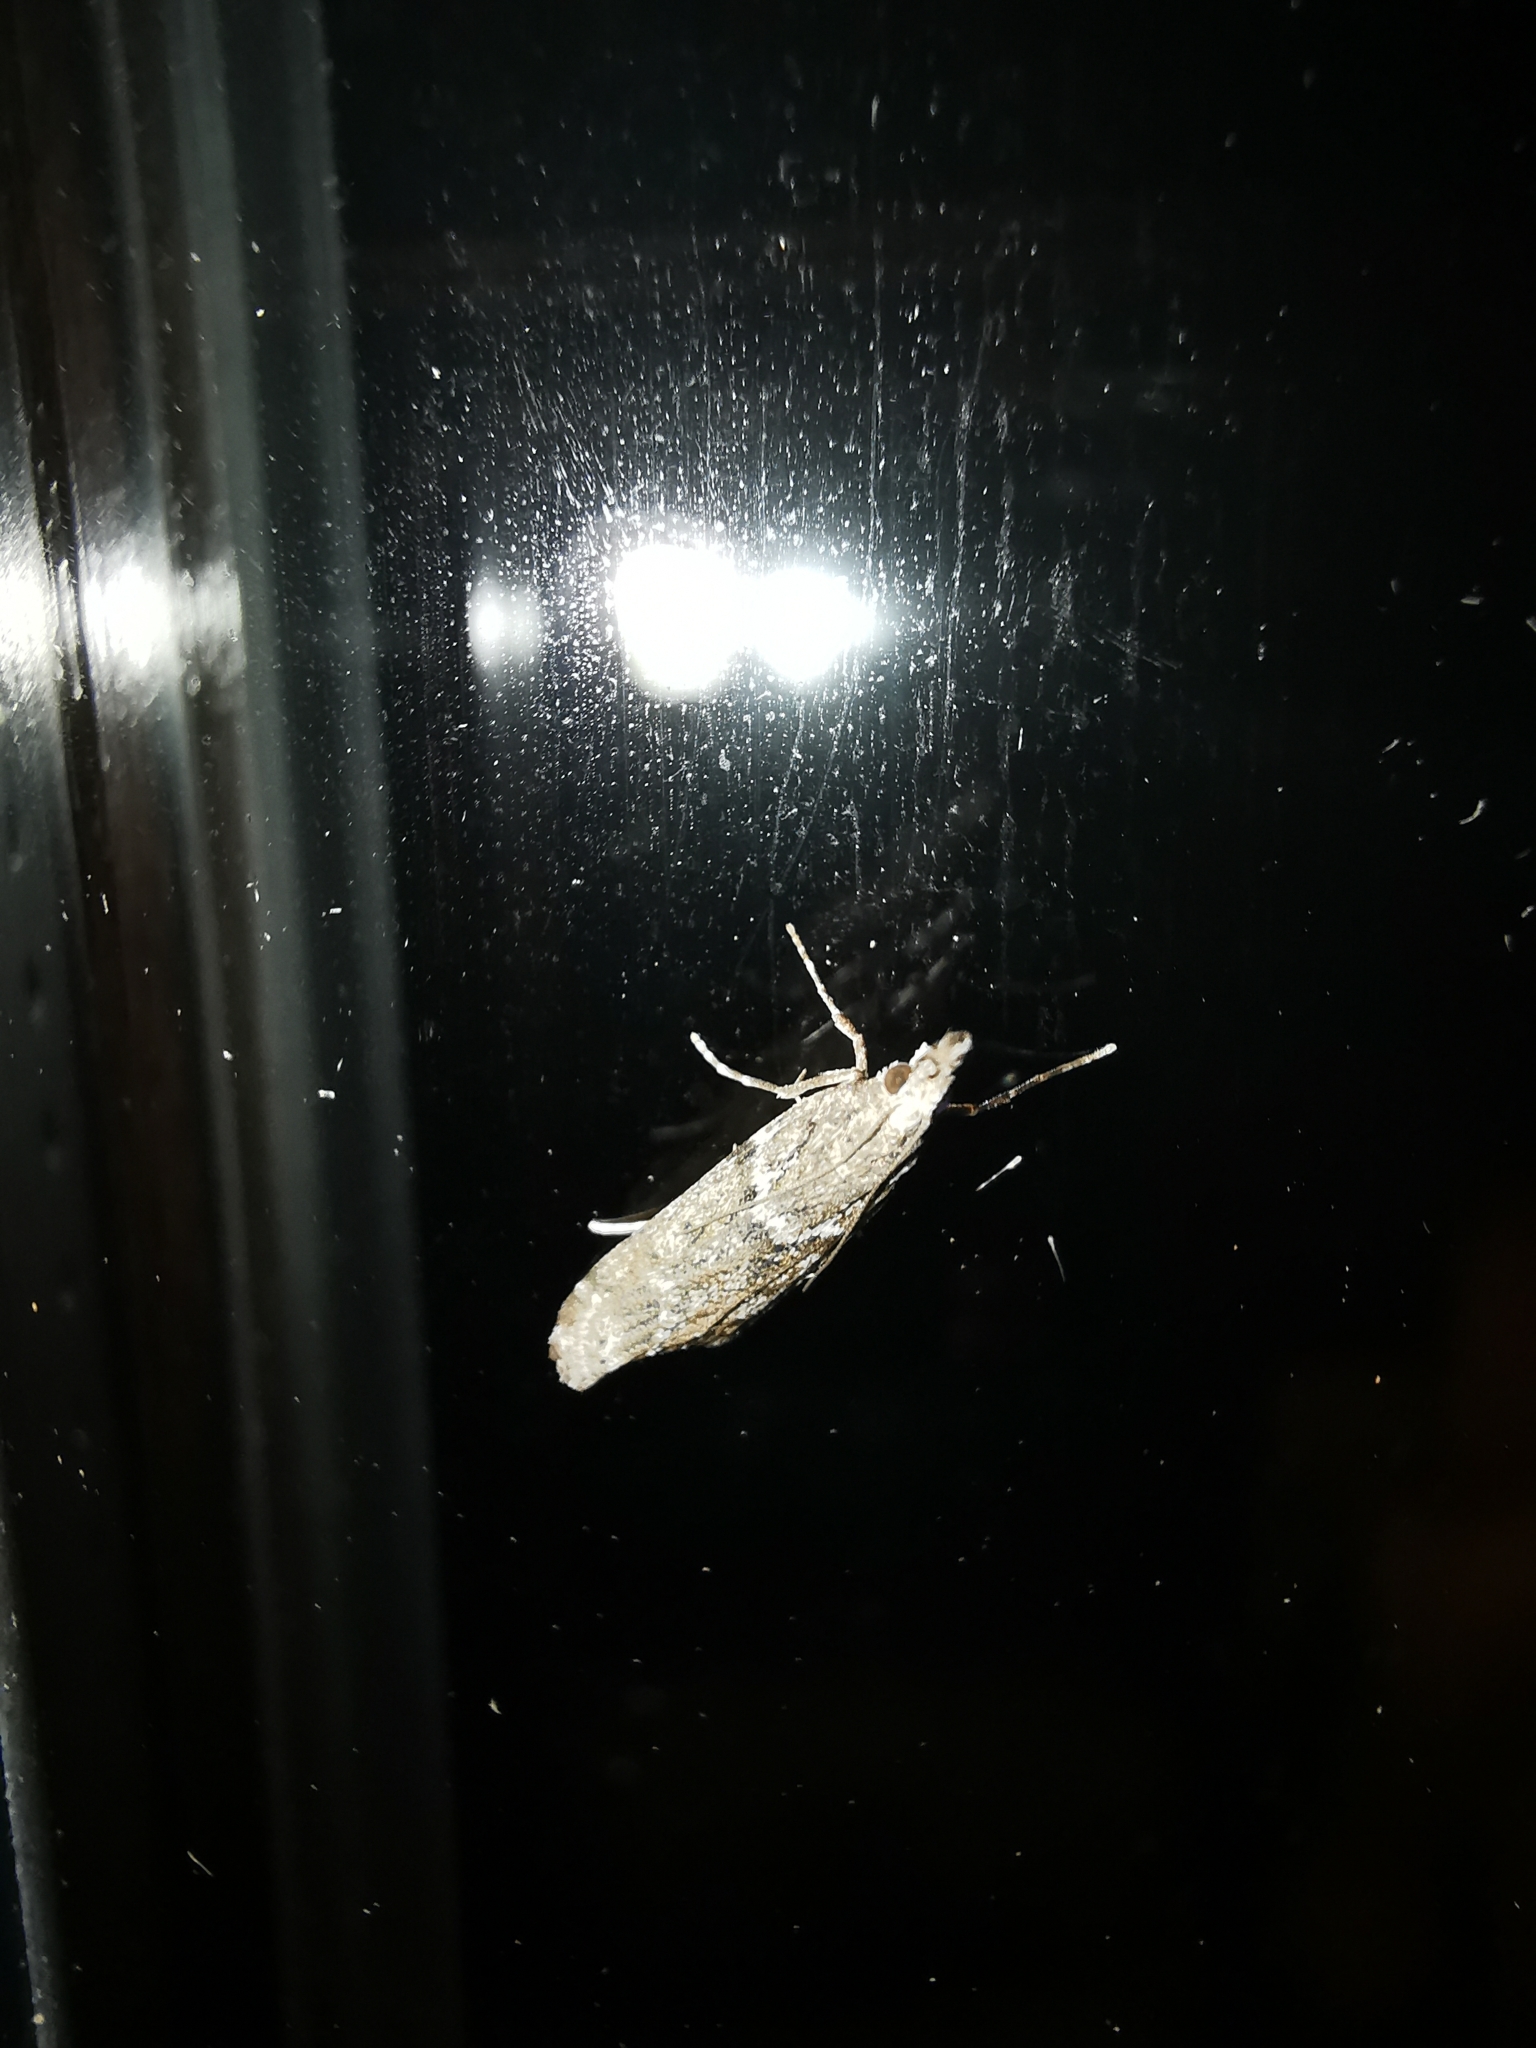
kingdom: Animalia
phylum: Arthropoda
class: Insecta
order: Lepidoptera
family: Crambidae
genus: Eudonia
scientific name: Eudonia angustea
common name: Narrow-winged grey
